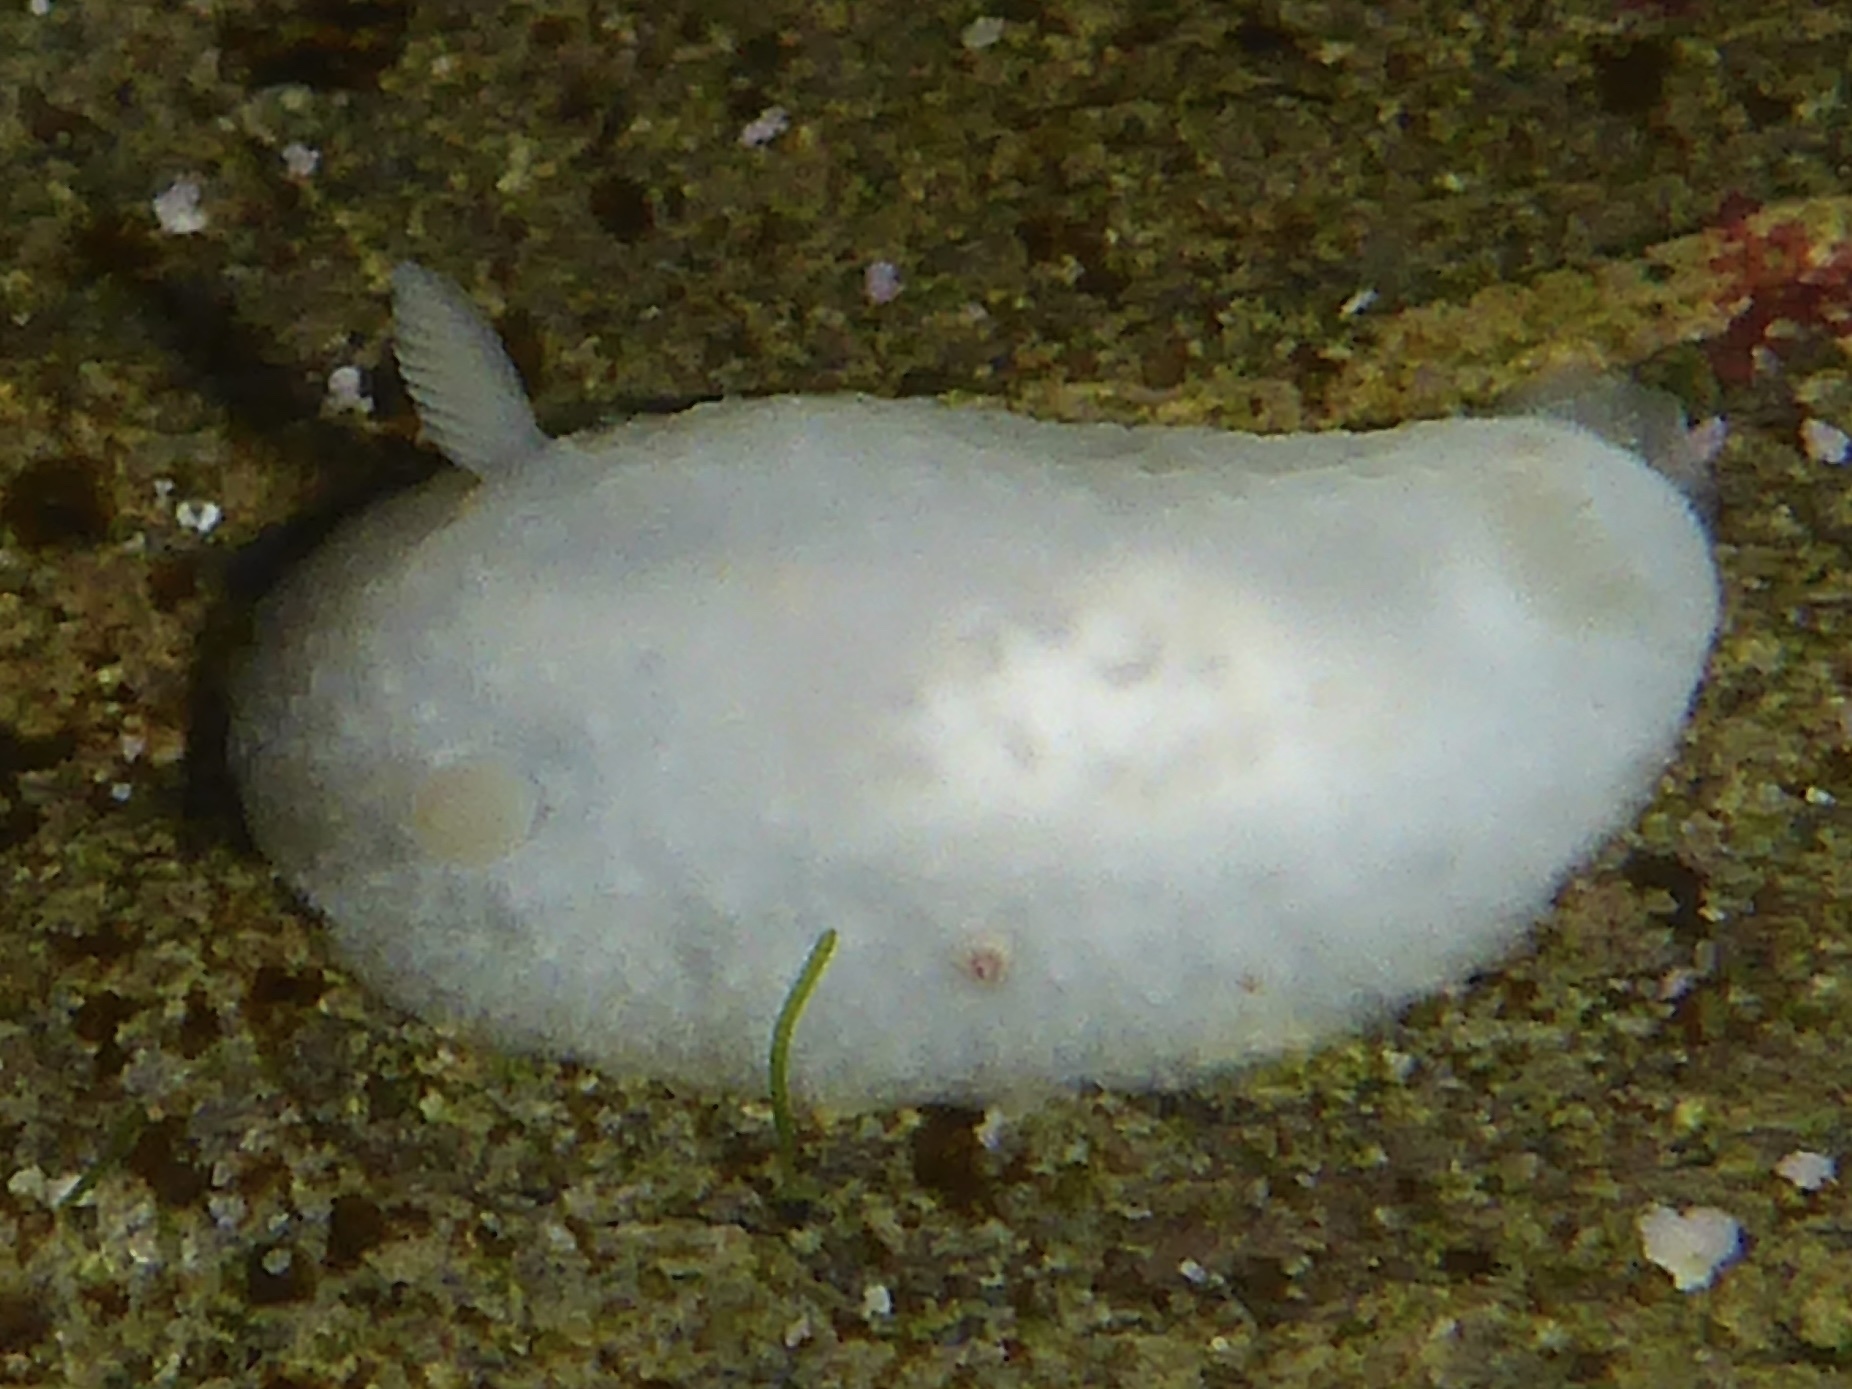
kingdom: Animalia
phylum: Mollusca
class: Gastropoda
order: Nudibranchia
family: Cadlinidae
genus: Cadlina
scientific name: Cadlina sparsa
